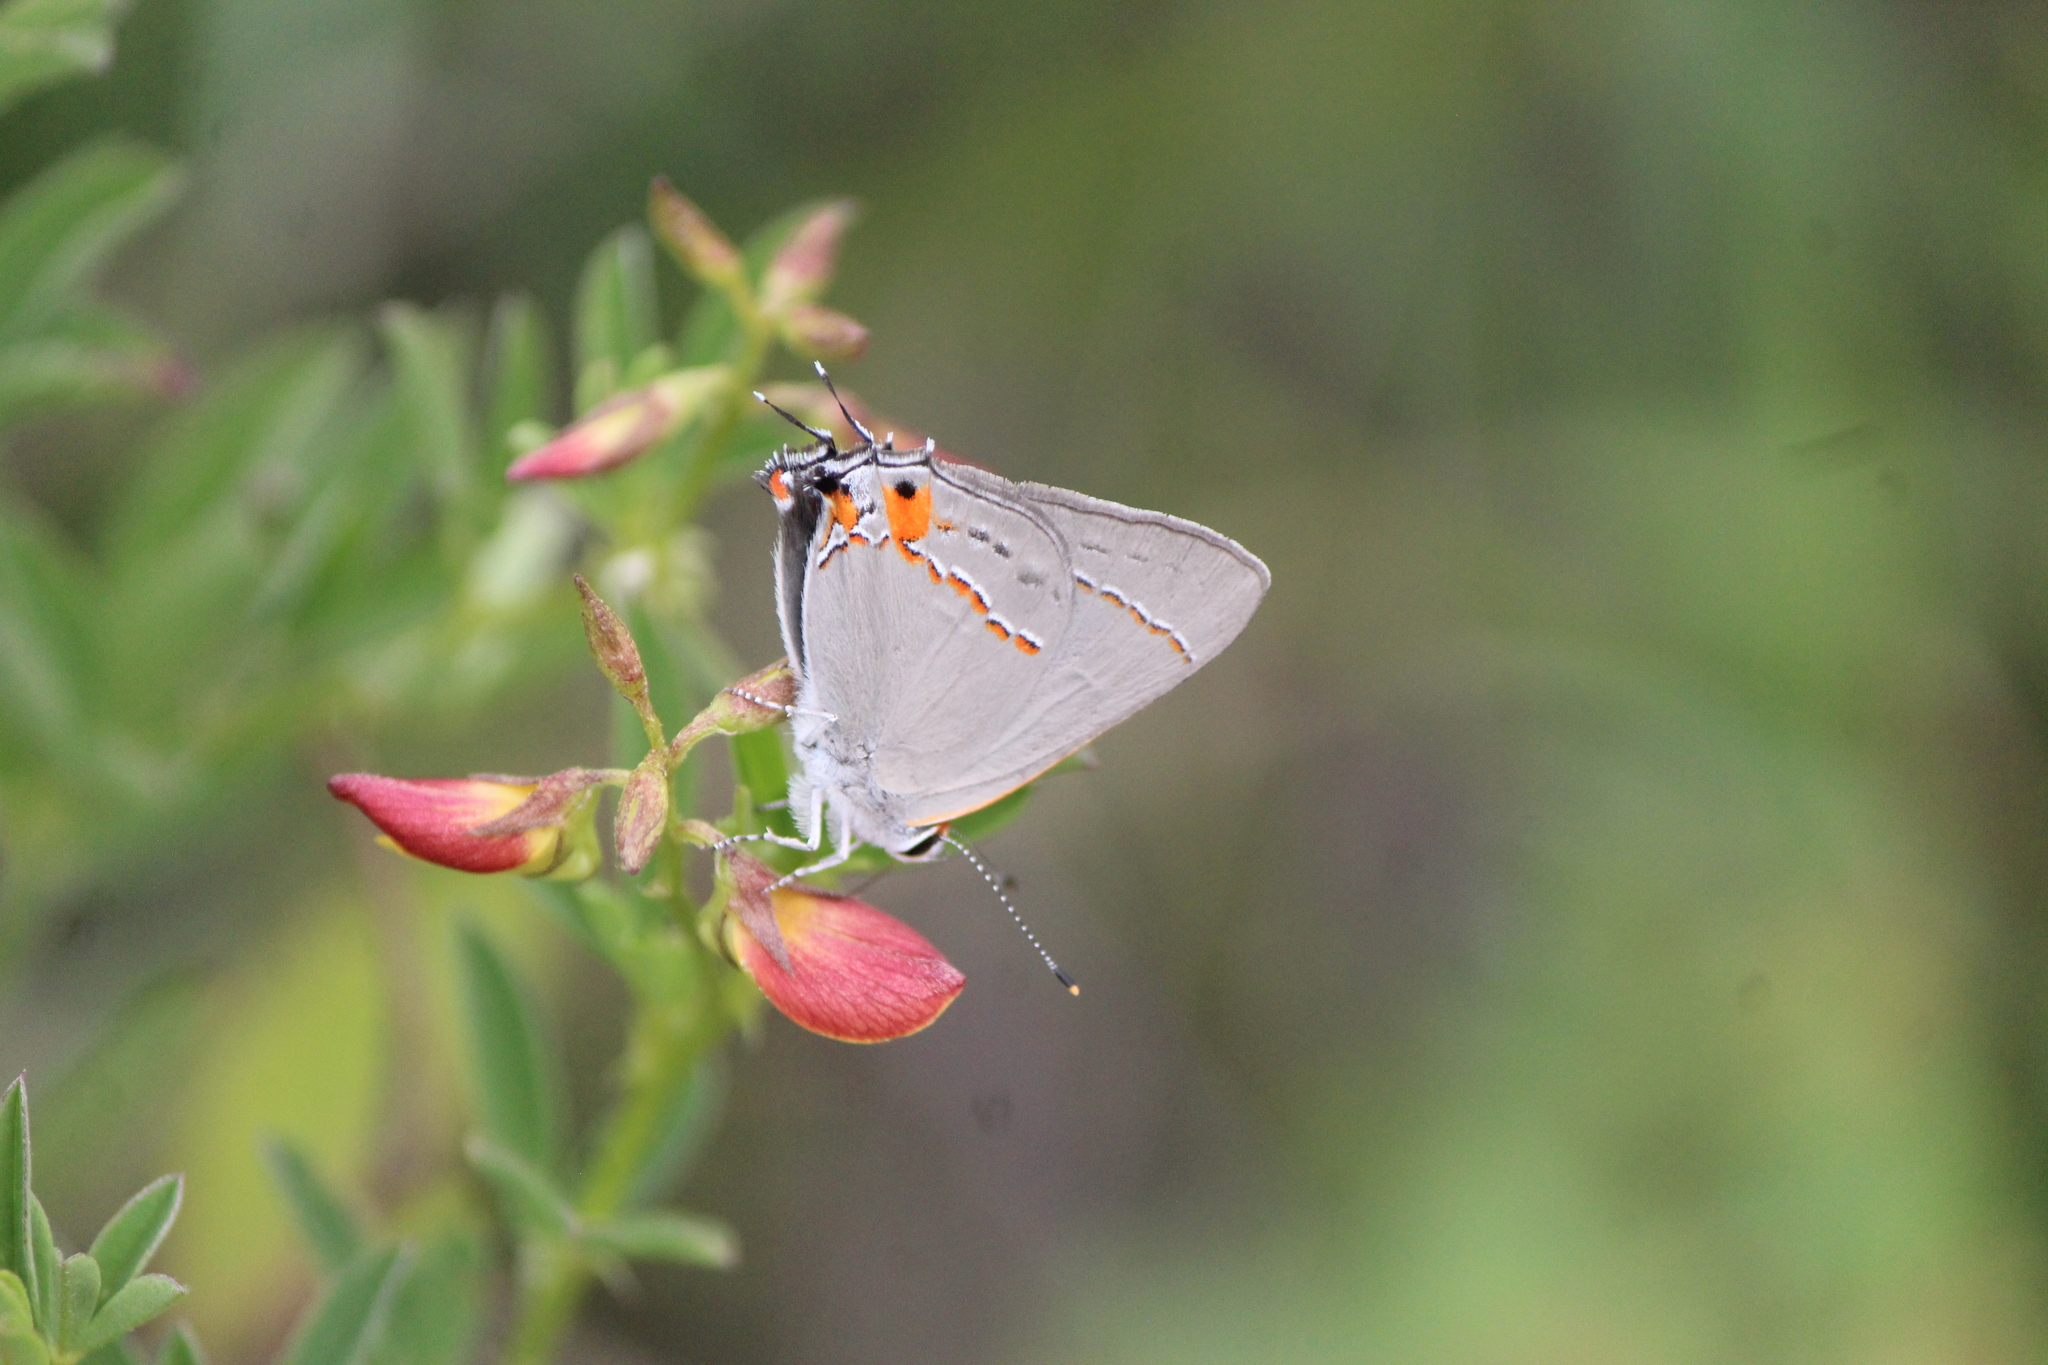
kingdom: Animalia
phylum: Arthropoda
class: Insecta
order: Lepidoptera
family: Lycaenidae
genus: Strymon
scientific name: Strymon melinus
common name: Gray hairstreak
